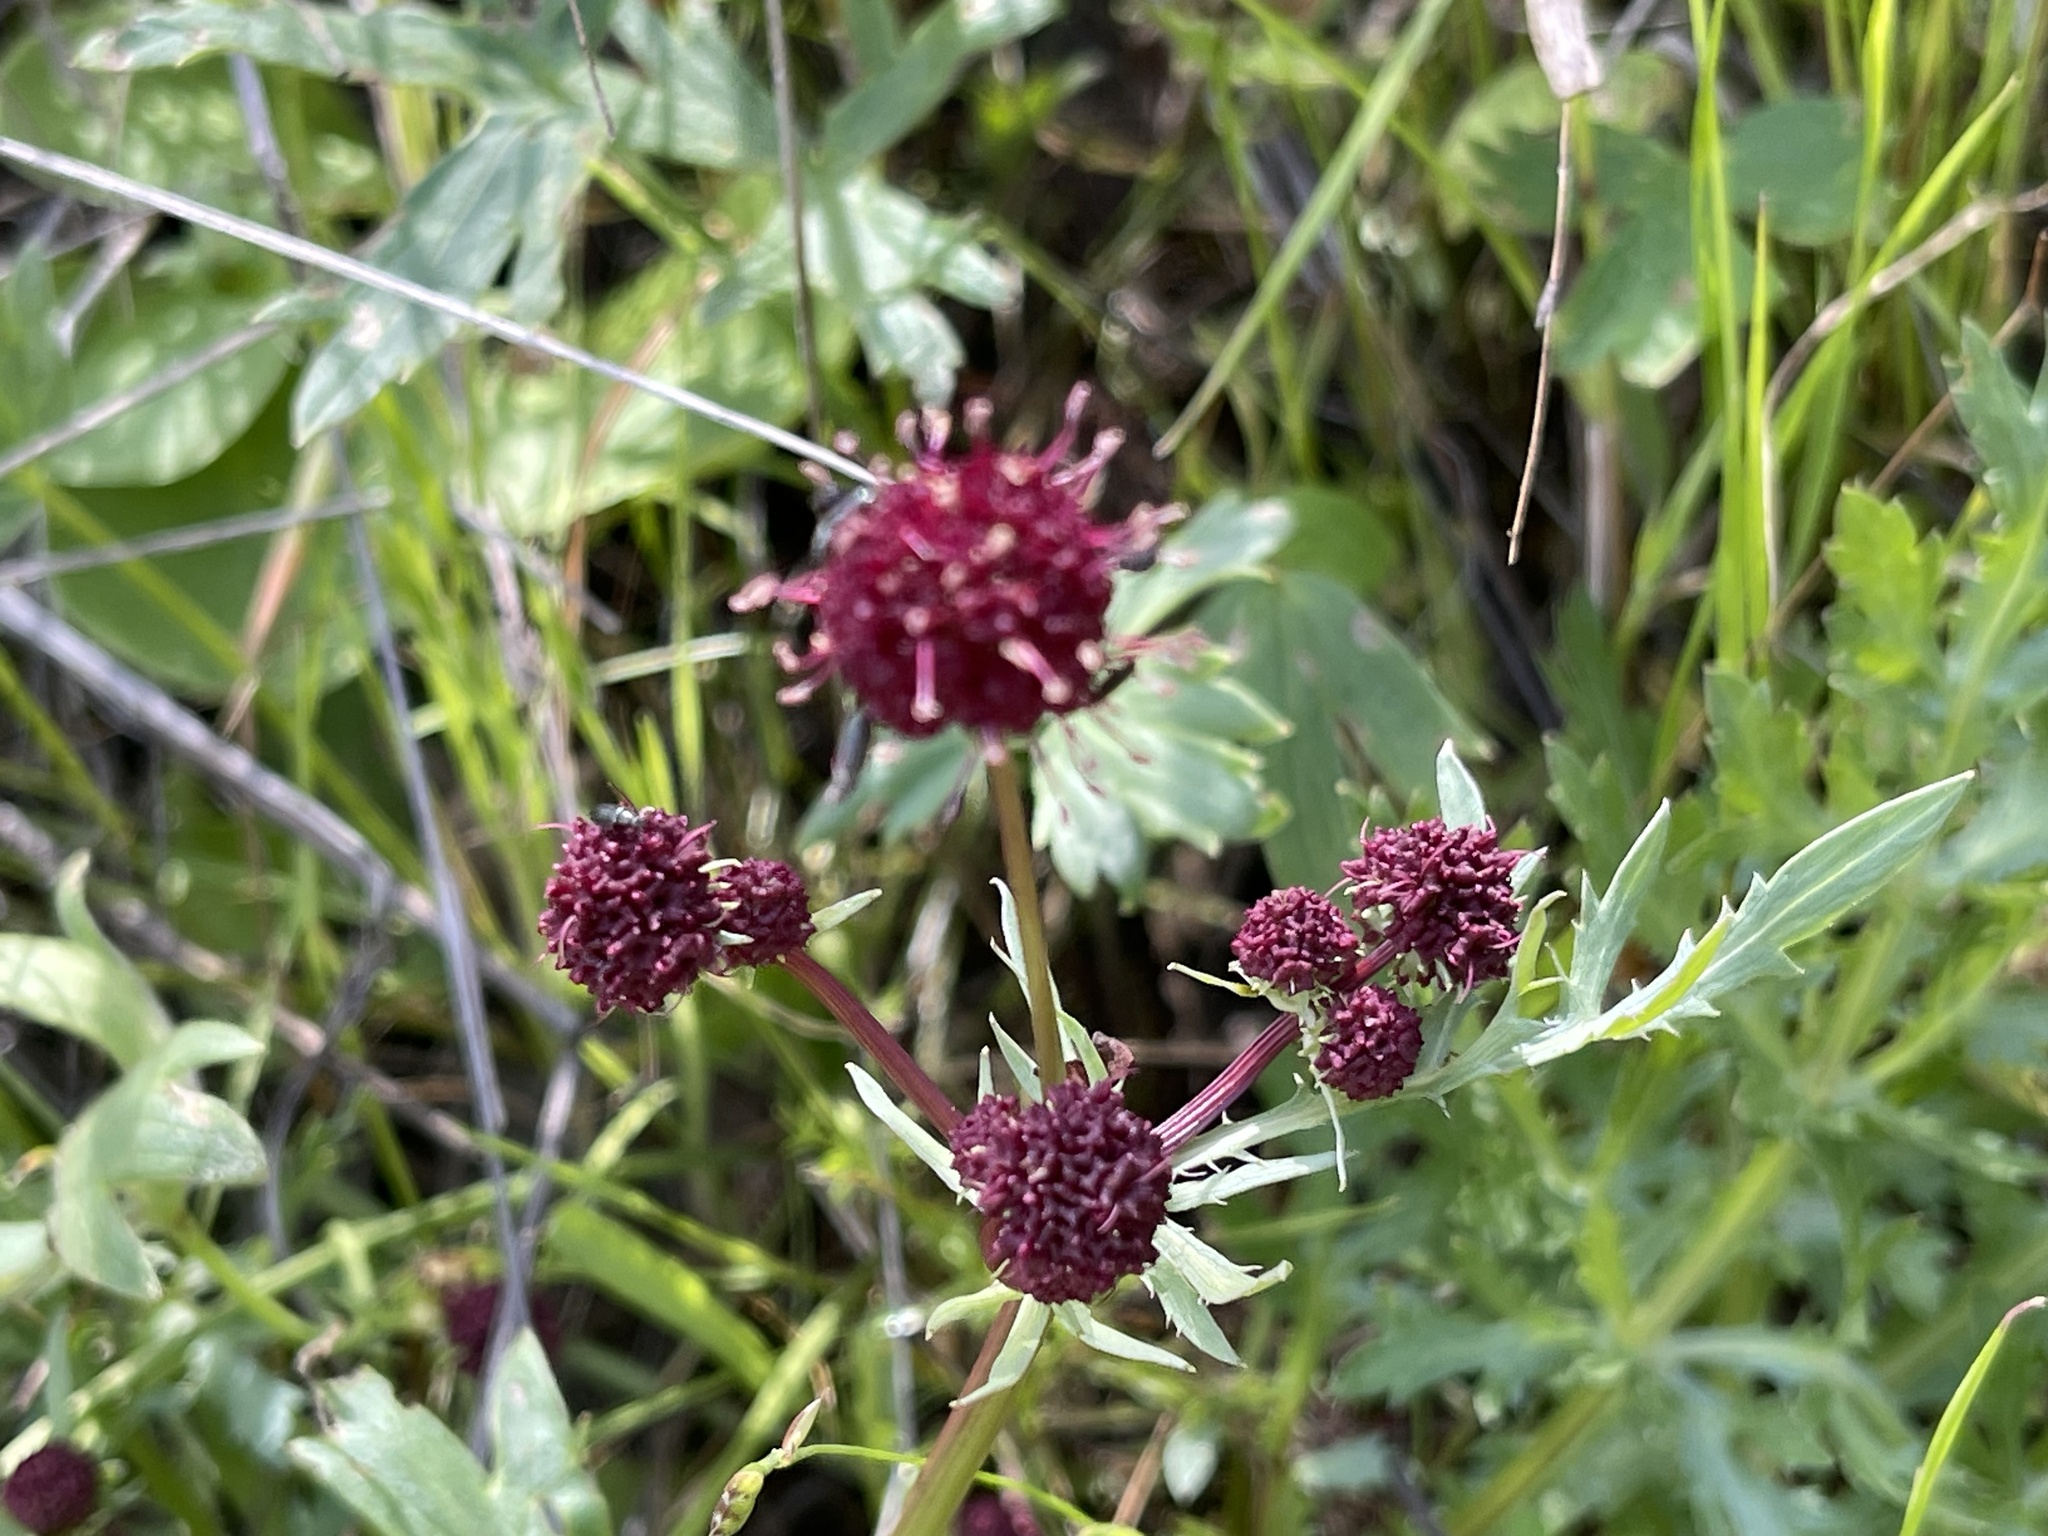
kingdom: Plantae
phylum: Tracheophyta
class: Magnoliopsida
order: Apiales
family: Apiaceae
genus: Sanicula
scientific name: Sanicula bipinnatifida
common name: Shoe-buttons
